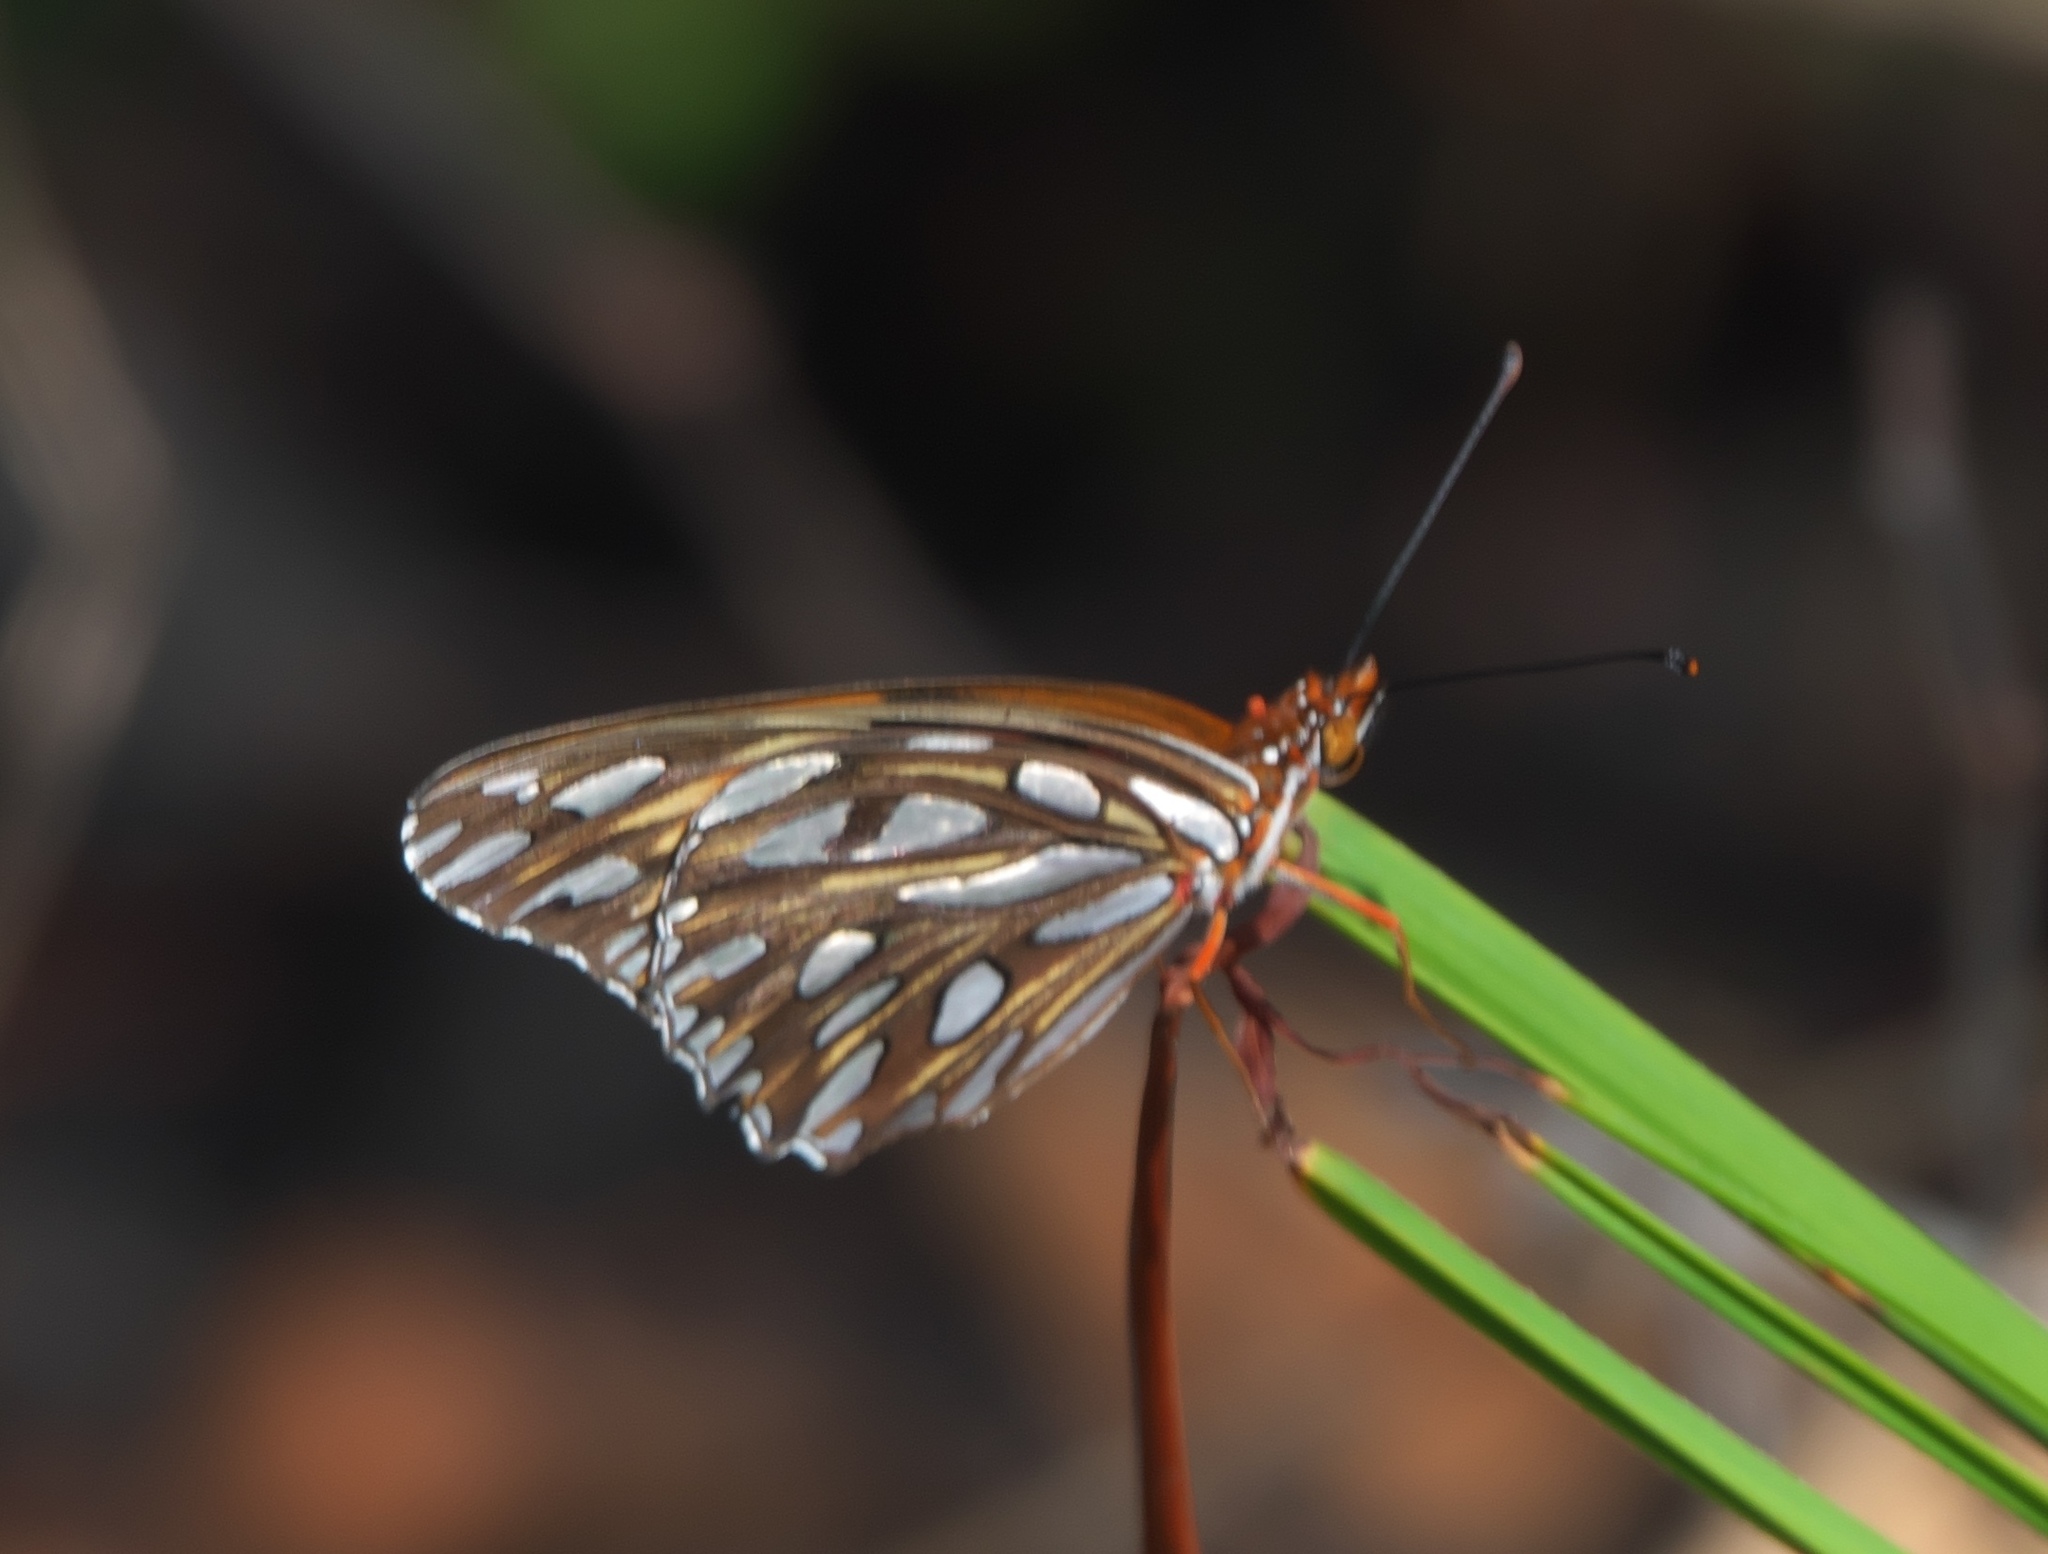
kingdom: Animalia
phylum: Arthropoda
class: Insecta
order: Lepidoptera
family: Nymphalidae
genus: Dione
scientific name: Dione vanillae
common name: Gulf fritillary
